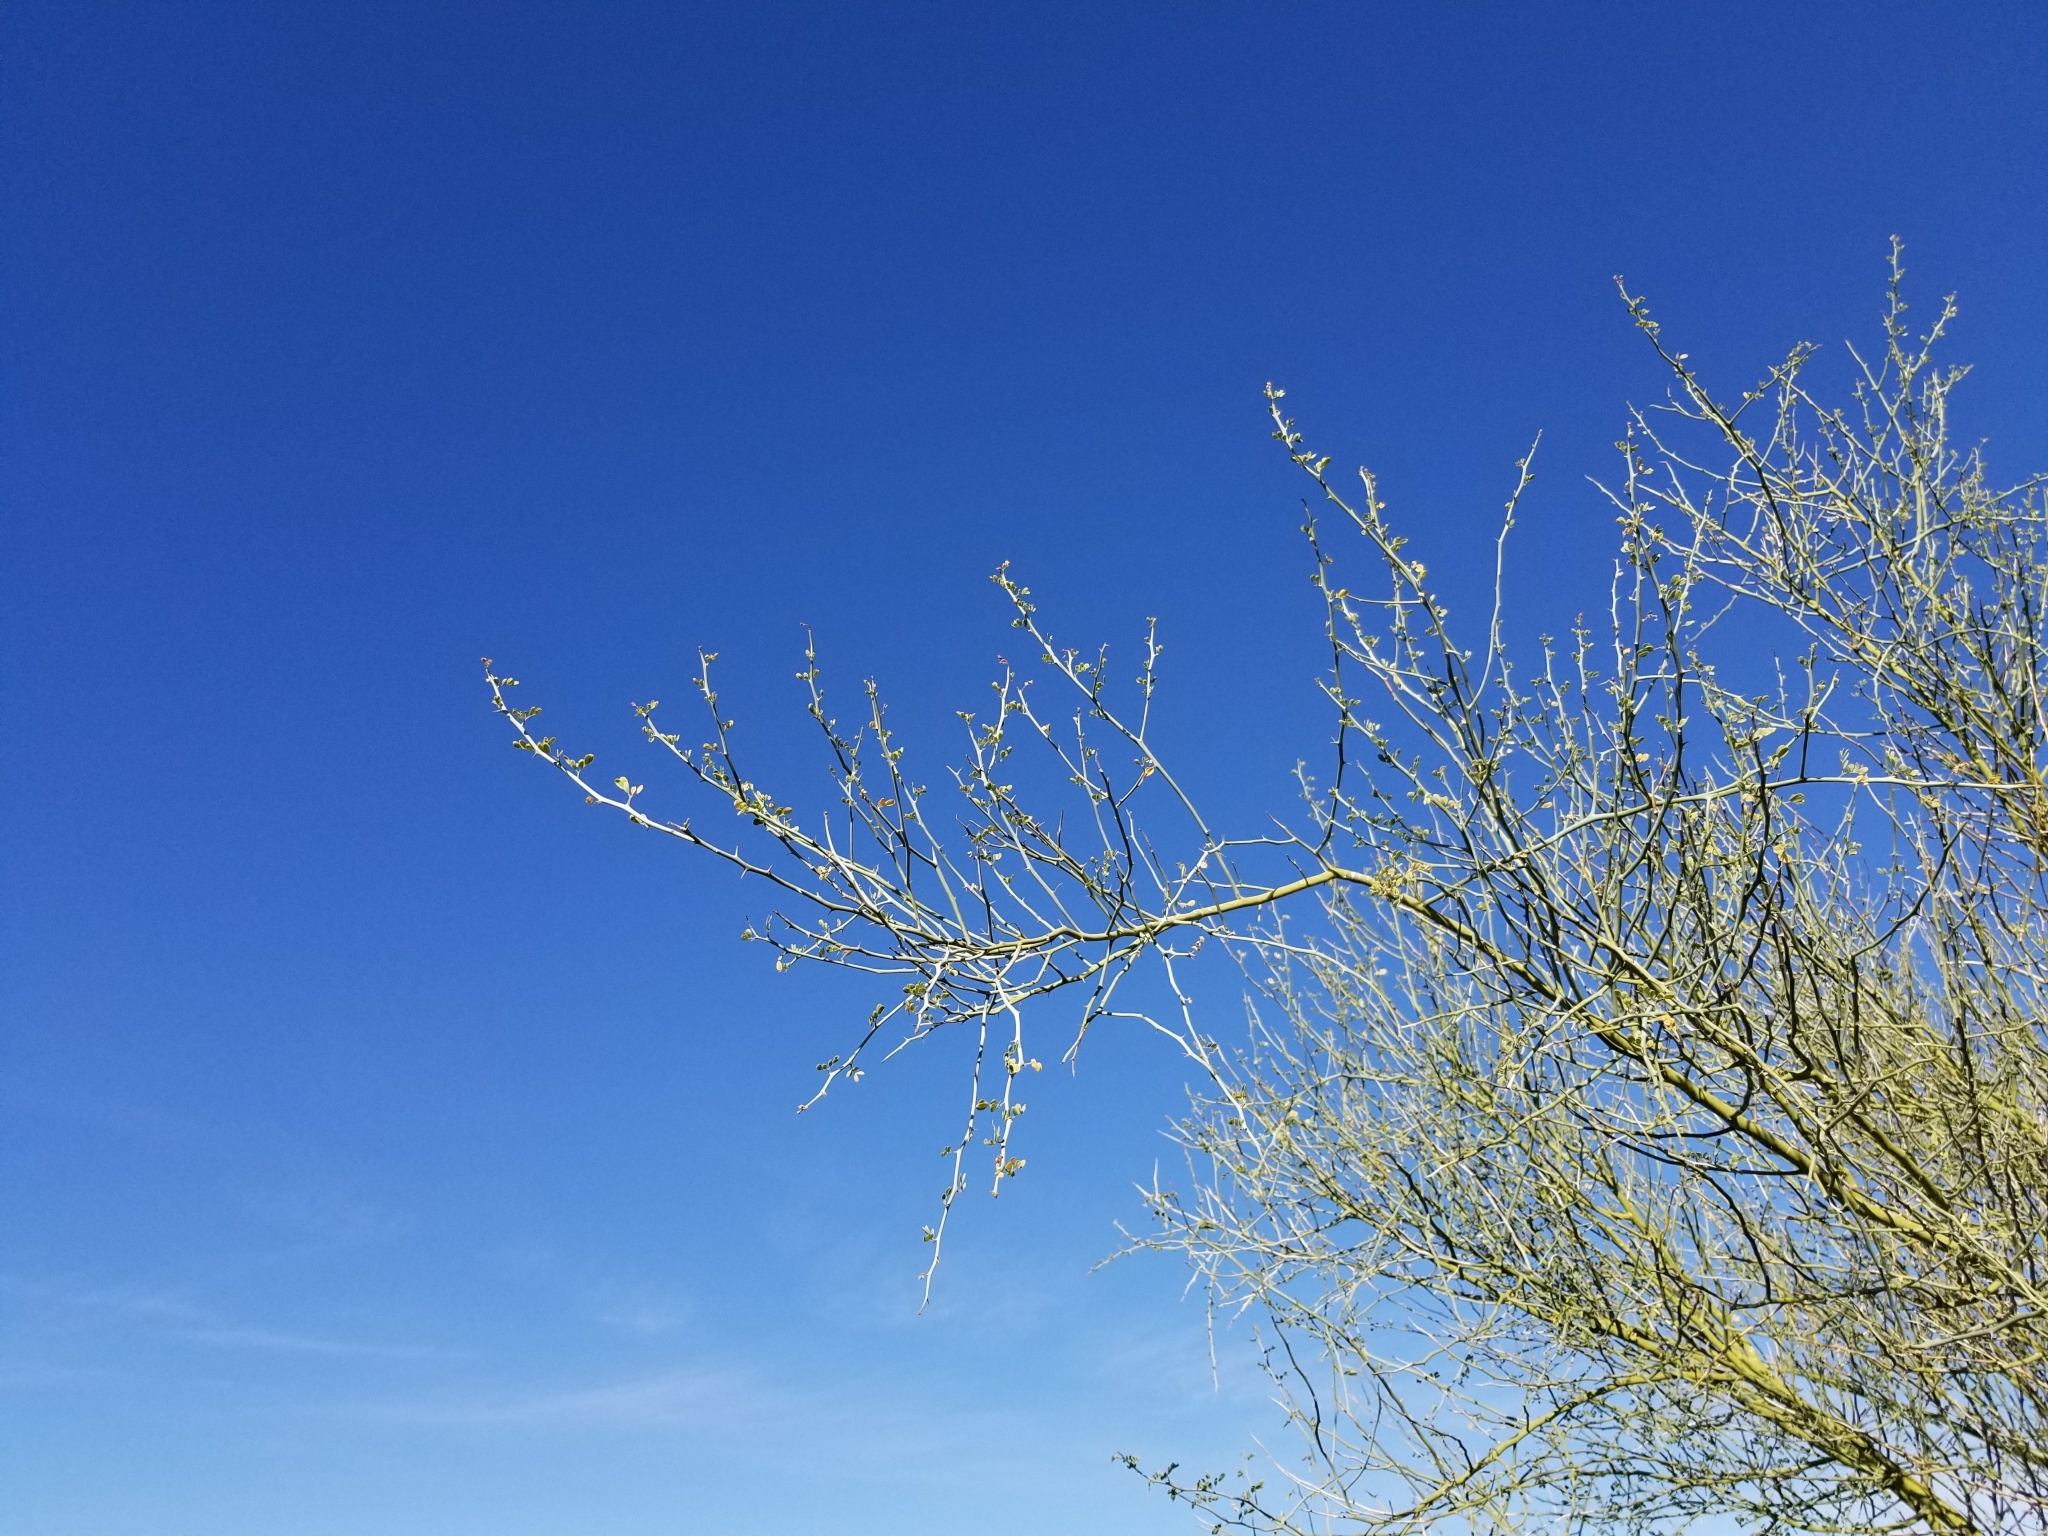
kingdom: Plantae
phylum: Tracheophyta
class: Magnoliopsida
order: Fabales
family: Fabaceae
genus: Parkinsonia
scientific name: Parkinsonia florida
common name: Blue paloverde
